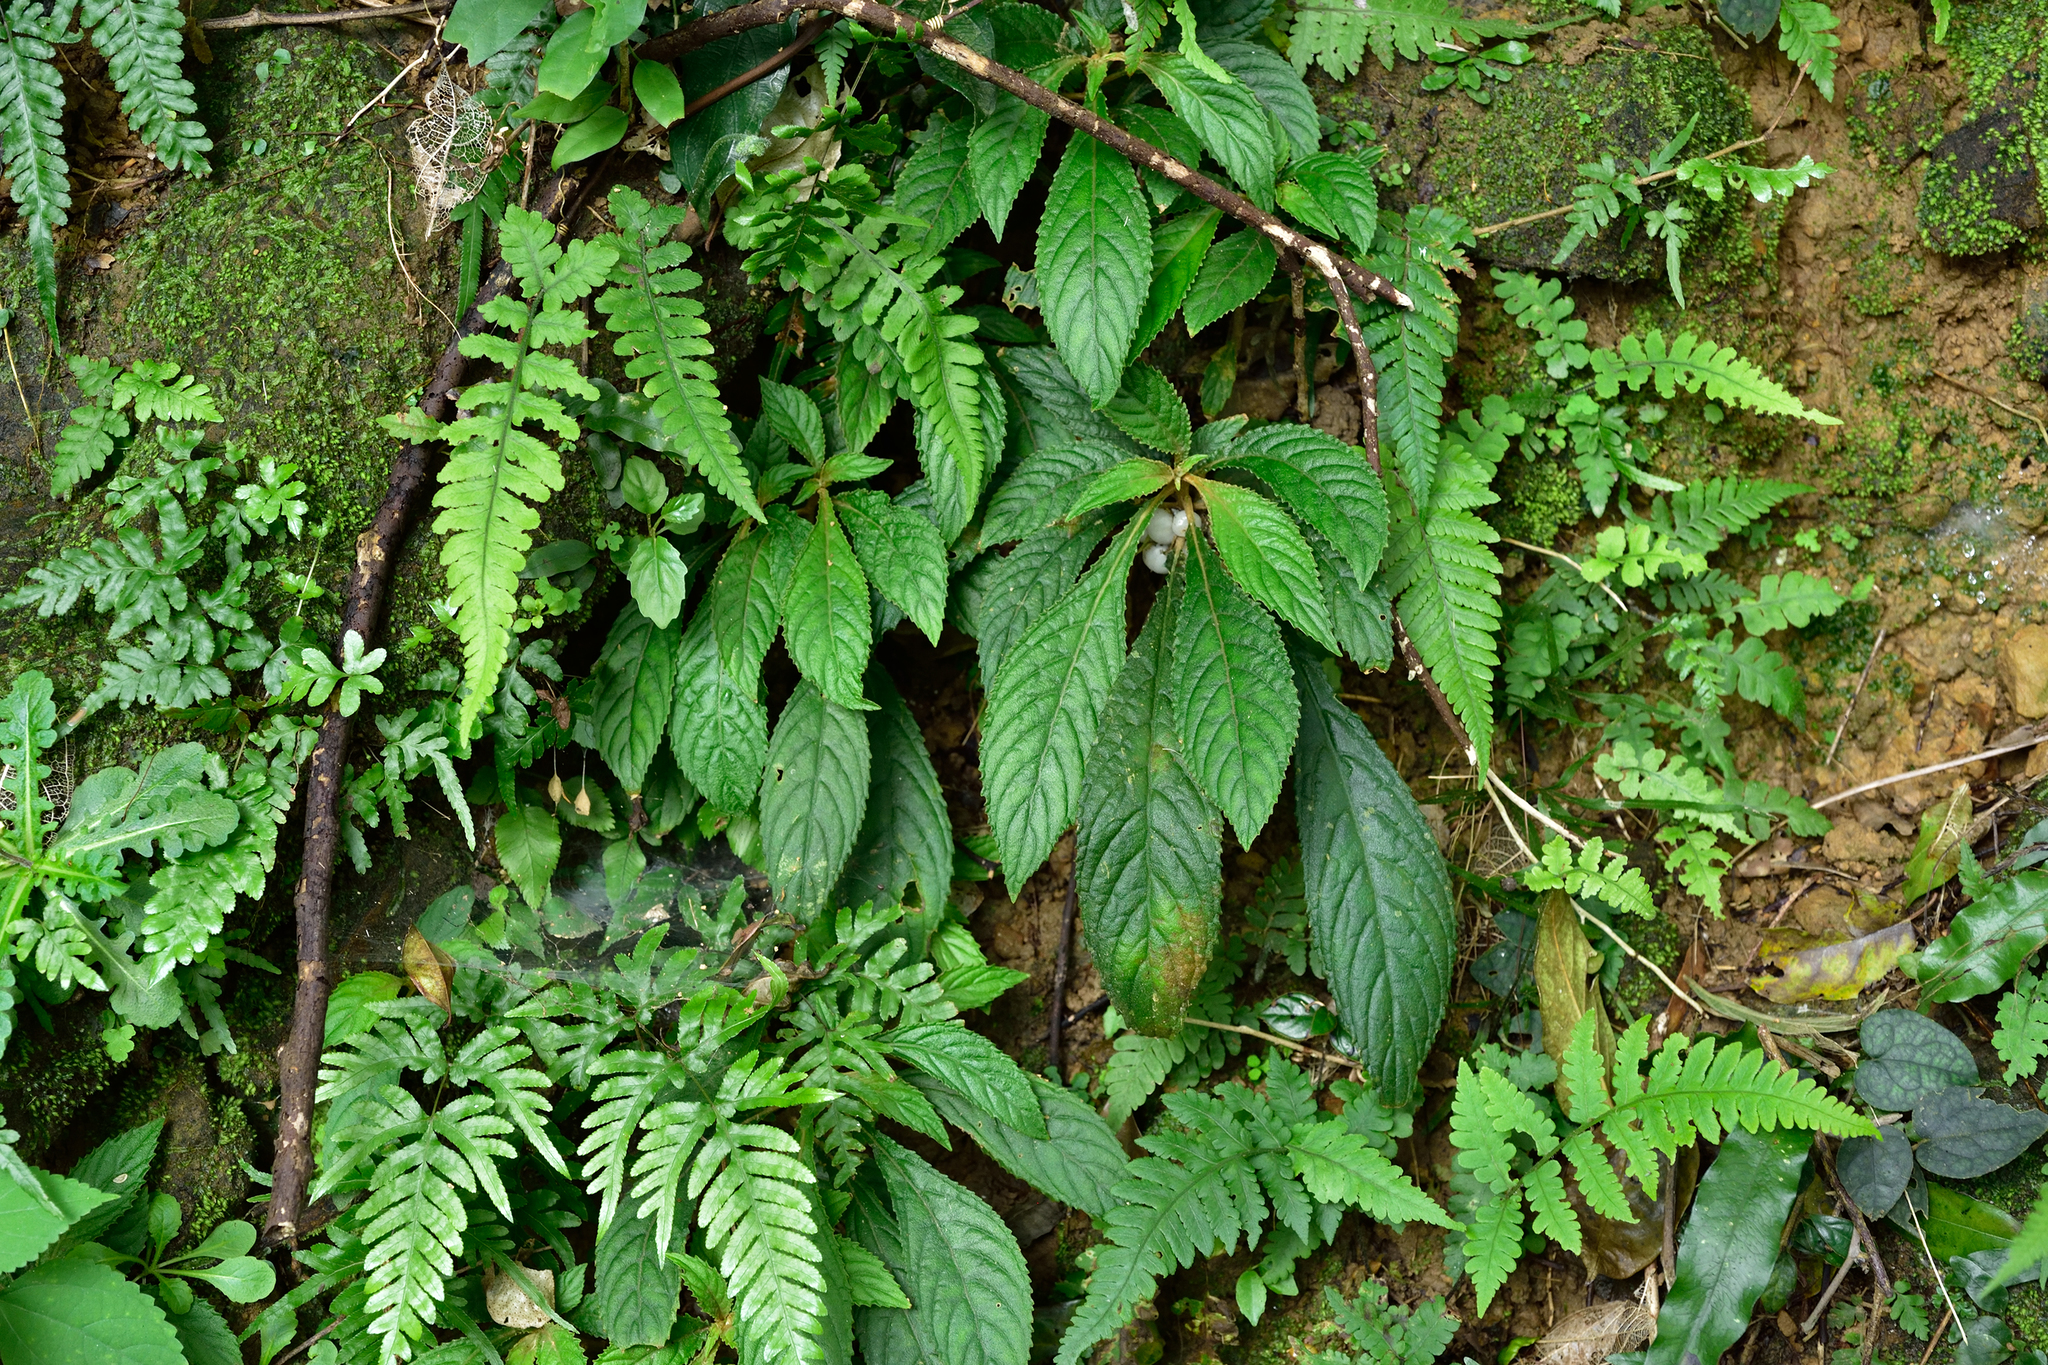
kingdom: Plantae
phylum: Tracheophyta
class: Magnoliopsida
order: Lamiales
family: Gesneriaceae
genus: Rhynchotechum
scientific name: Rhynchotechum brevipedunculatum
